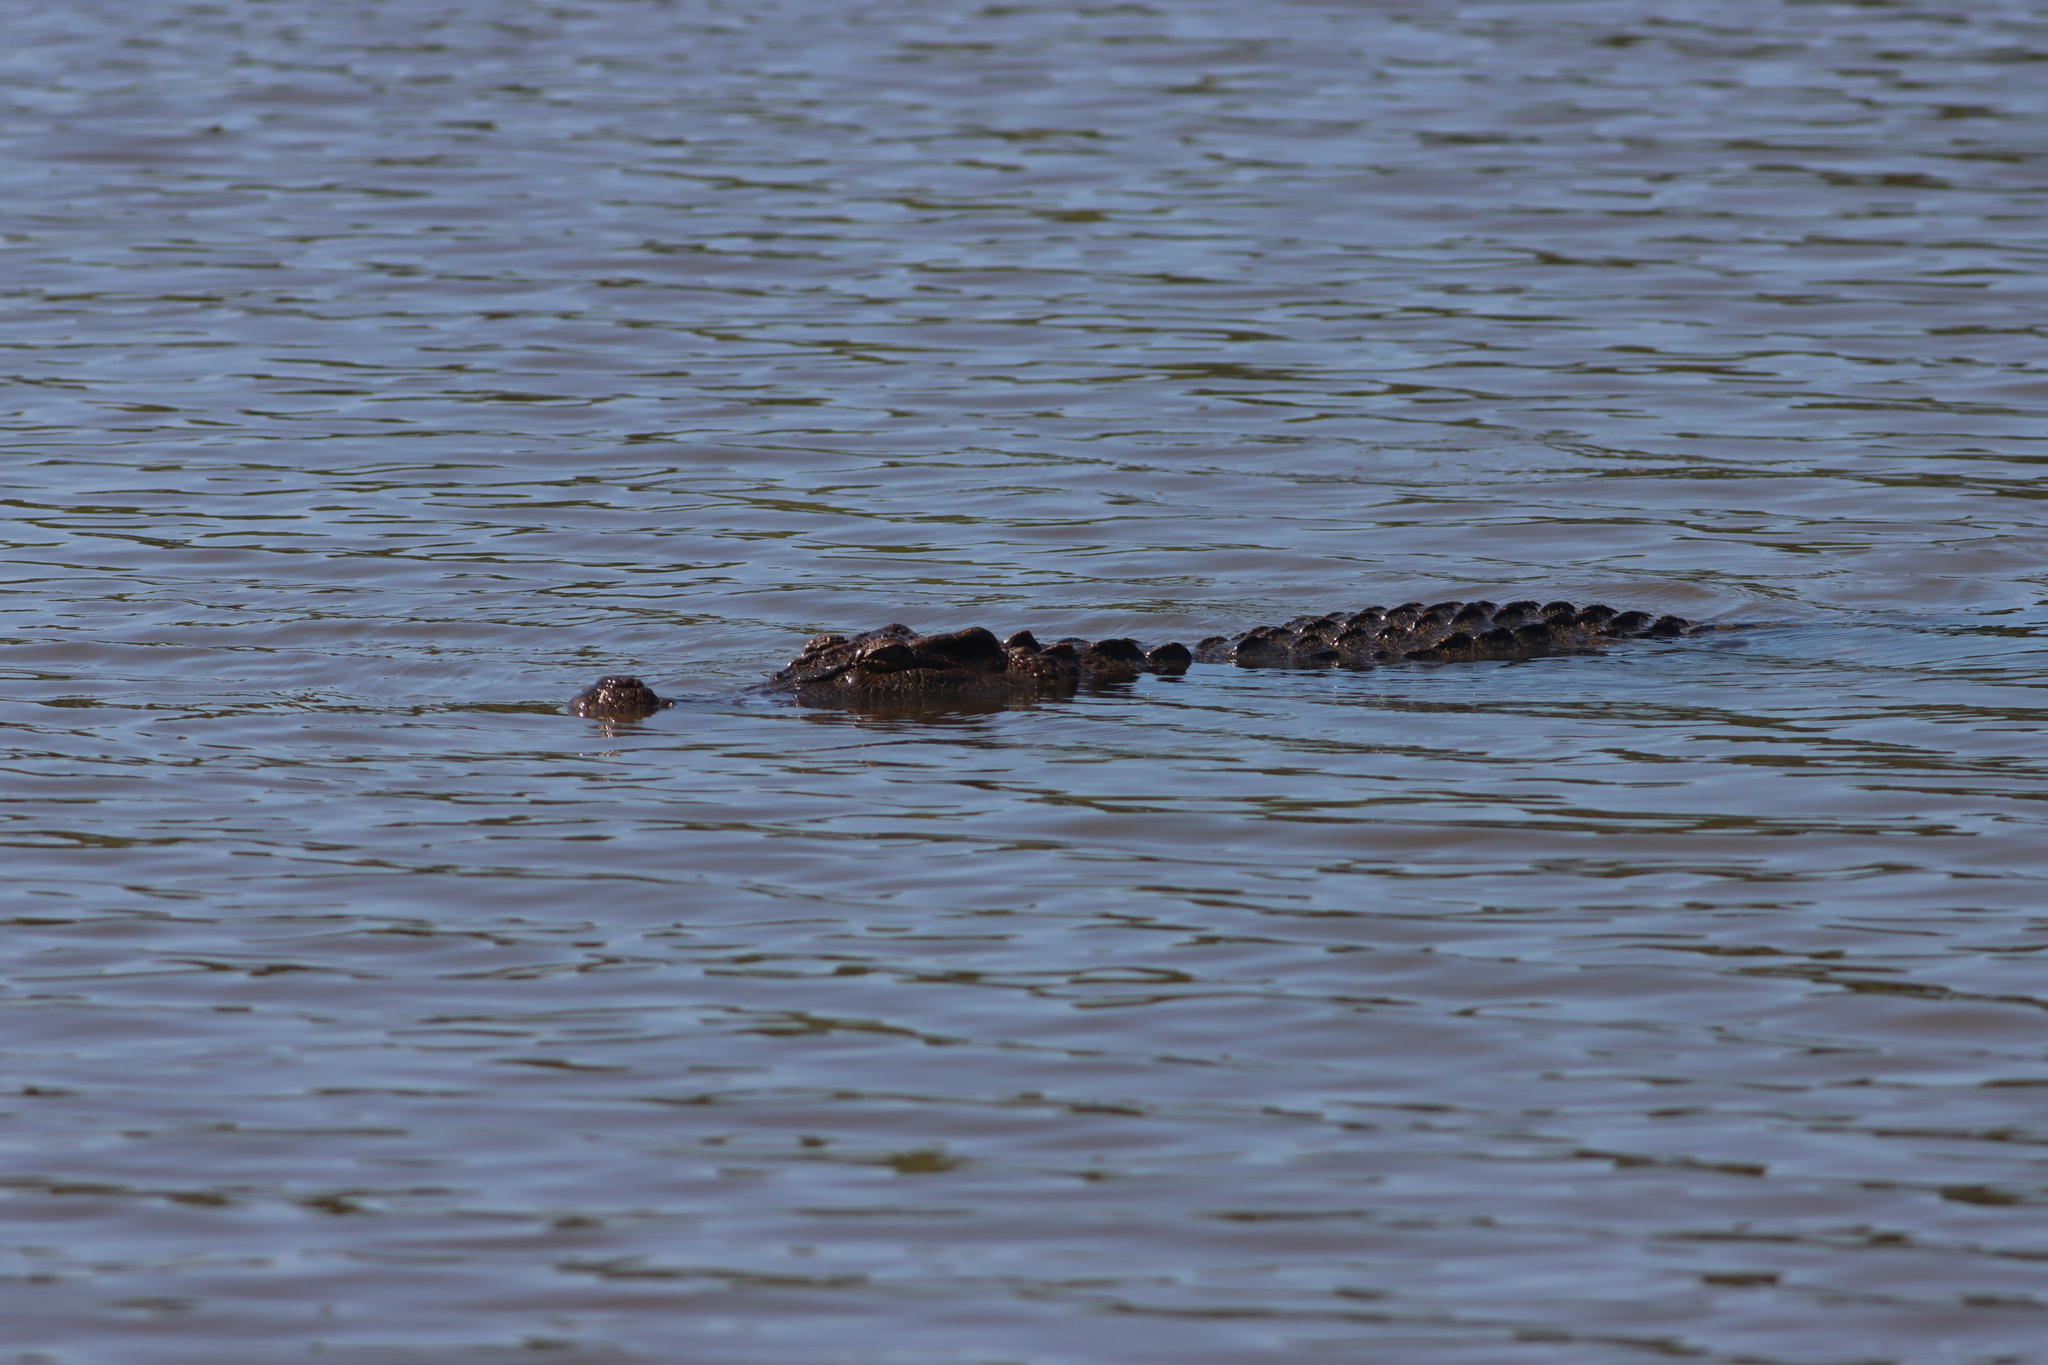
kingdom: Animalia
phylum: Chordata
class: Crocodylia
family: Crocodylidae
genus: Crocodylus
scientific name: Crocodylus siamensis
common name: Siamese crocodile
